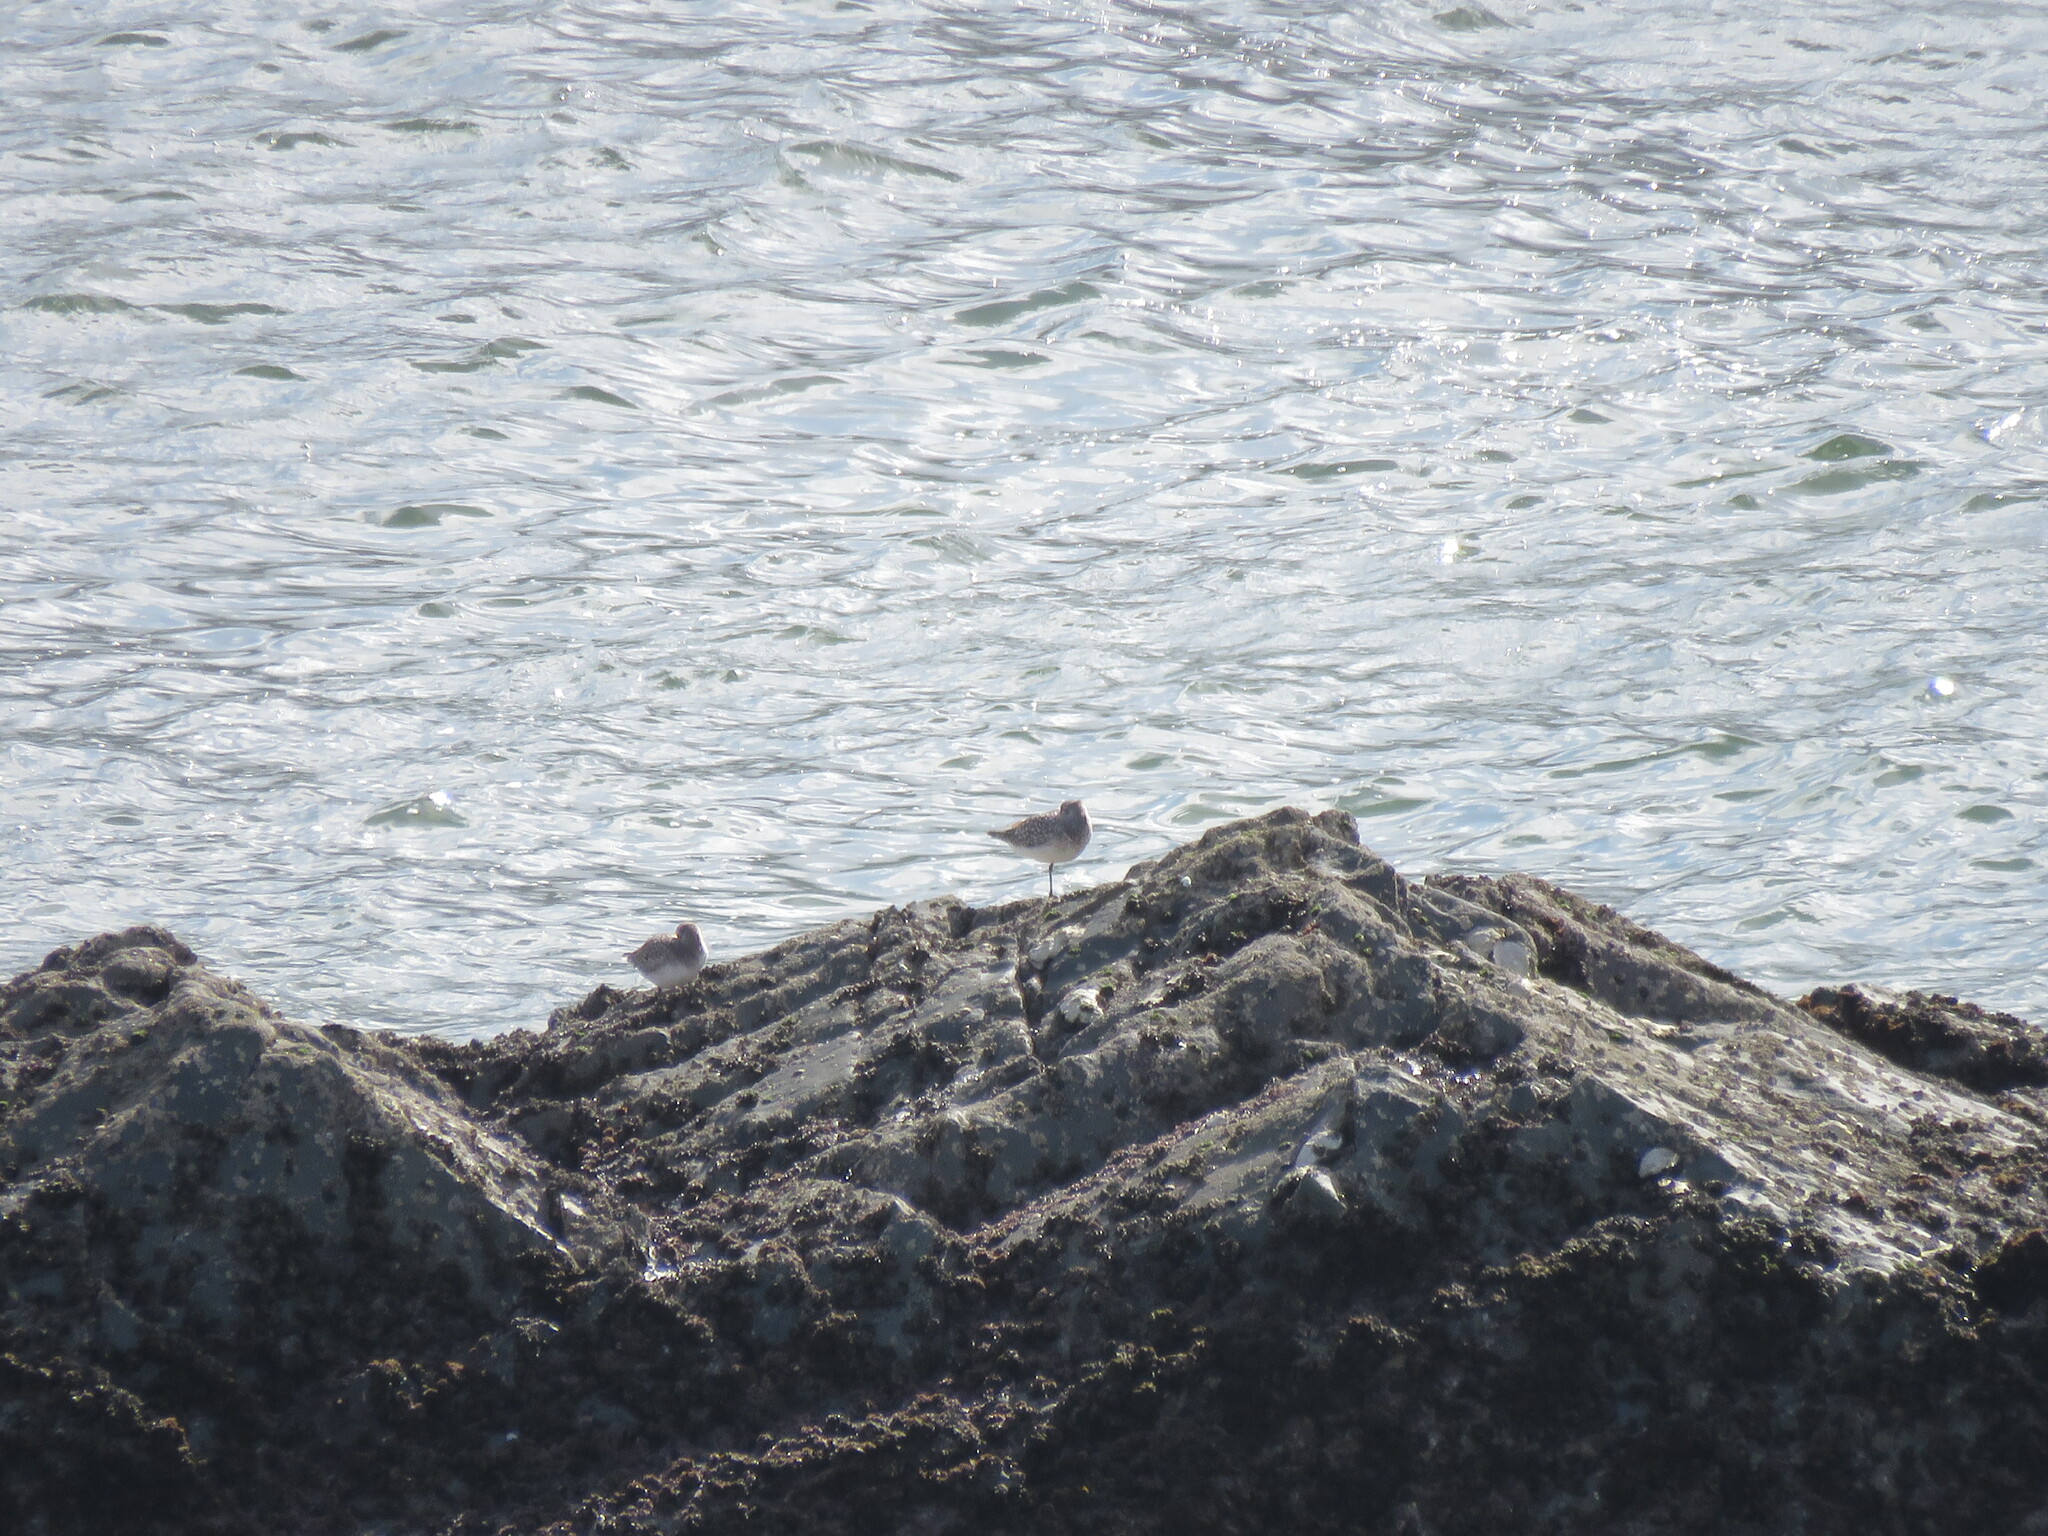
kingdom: Animalia
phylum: Chordata
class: Aves
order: Charadriiformes
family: Charadriidae
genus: Pluvialis
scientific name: Pluvialis squatarola
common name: Grey plover
